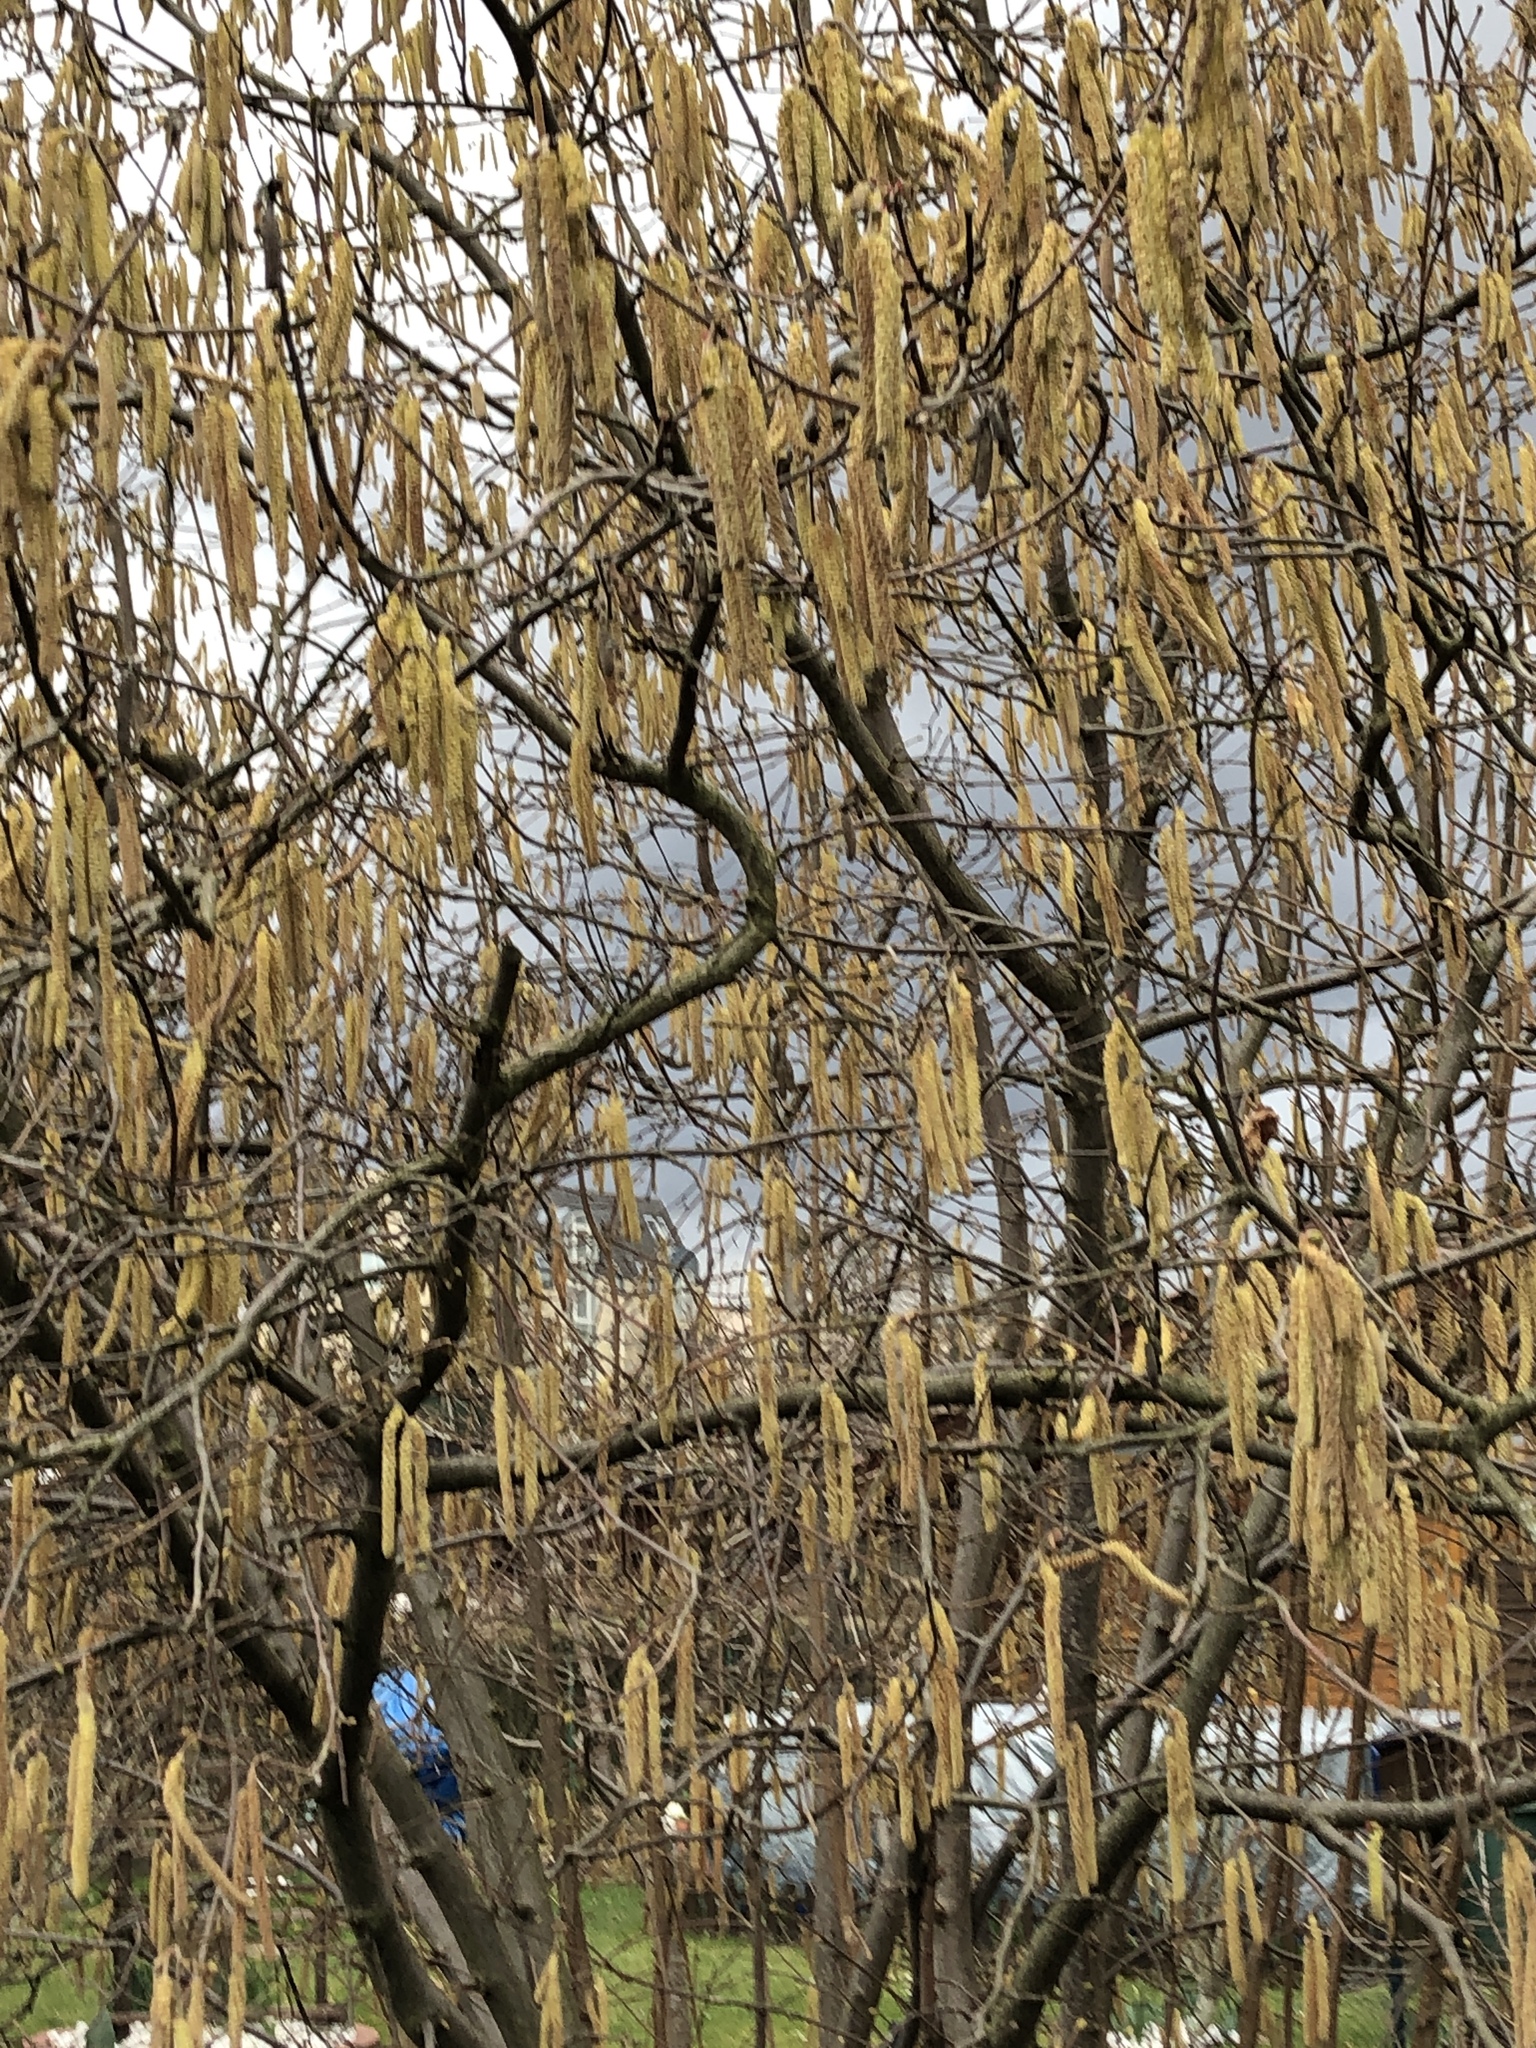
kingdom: Plantae
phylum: Tracheophyta
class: Magnoliopsida
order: Fagales
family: Betulaceae
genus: Corylus
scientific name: Corylus avellana
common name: European hazel
